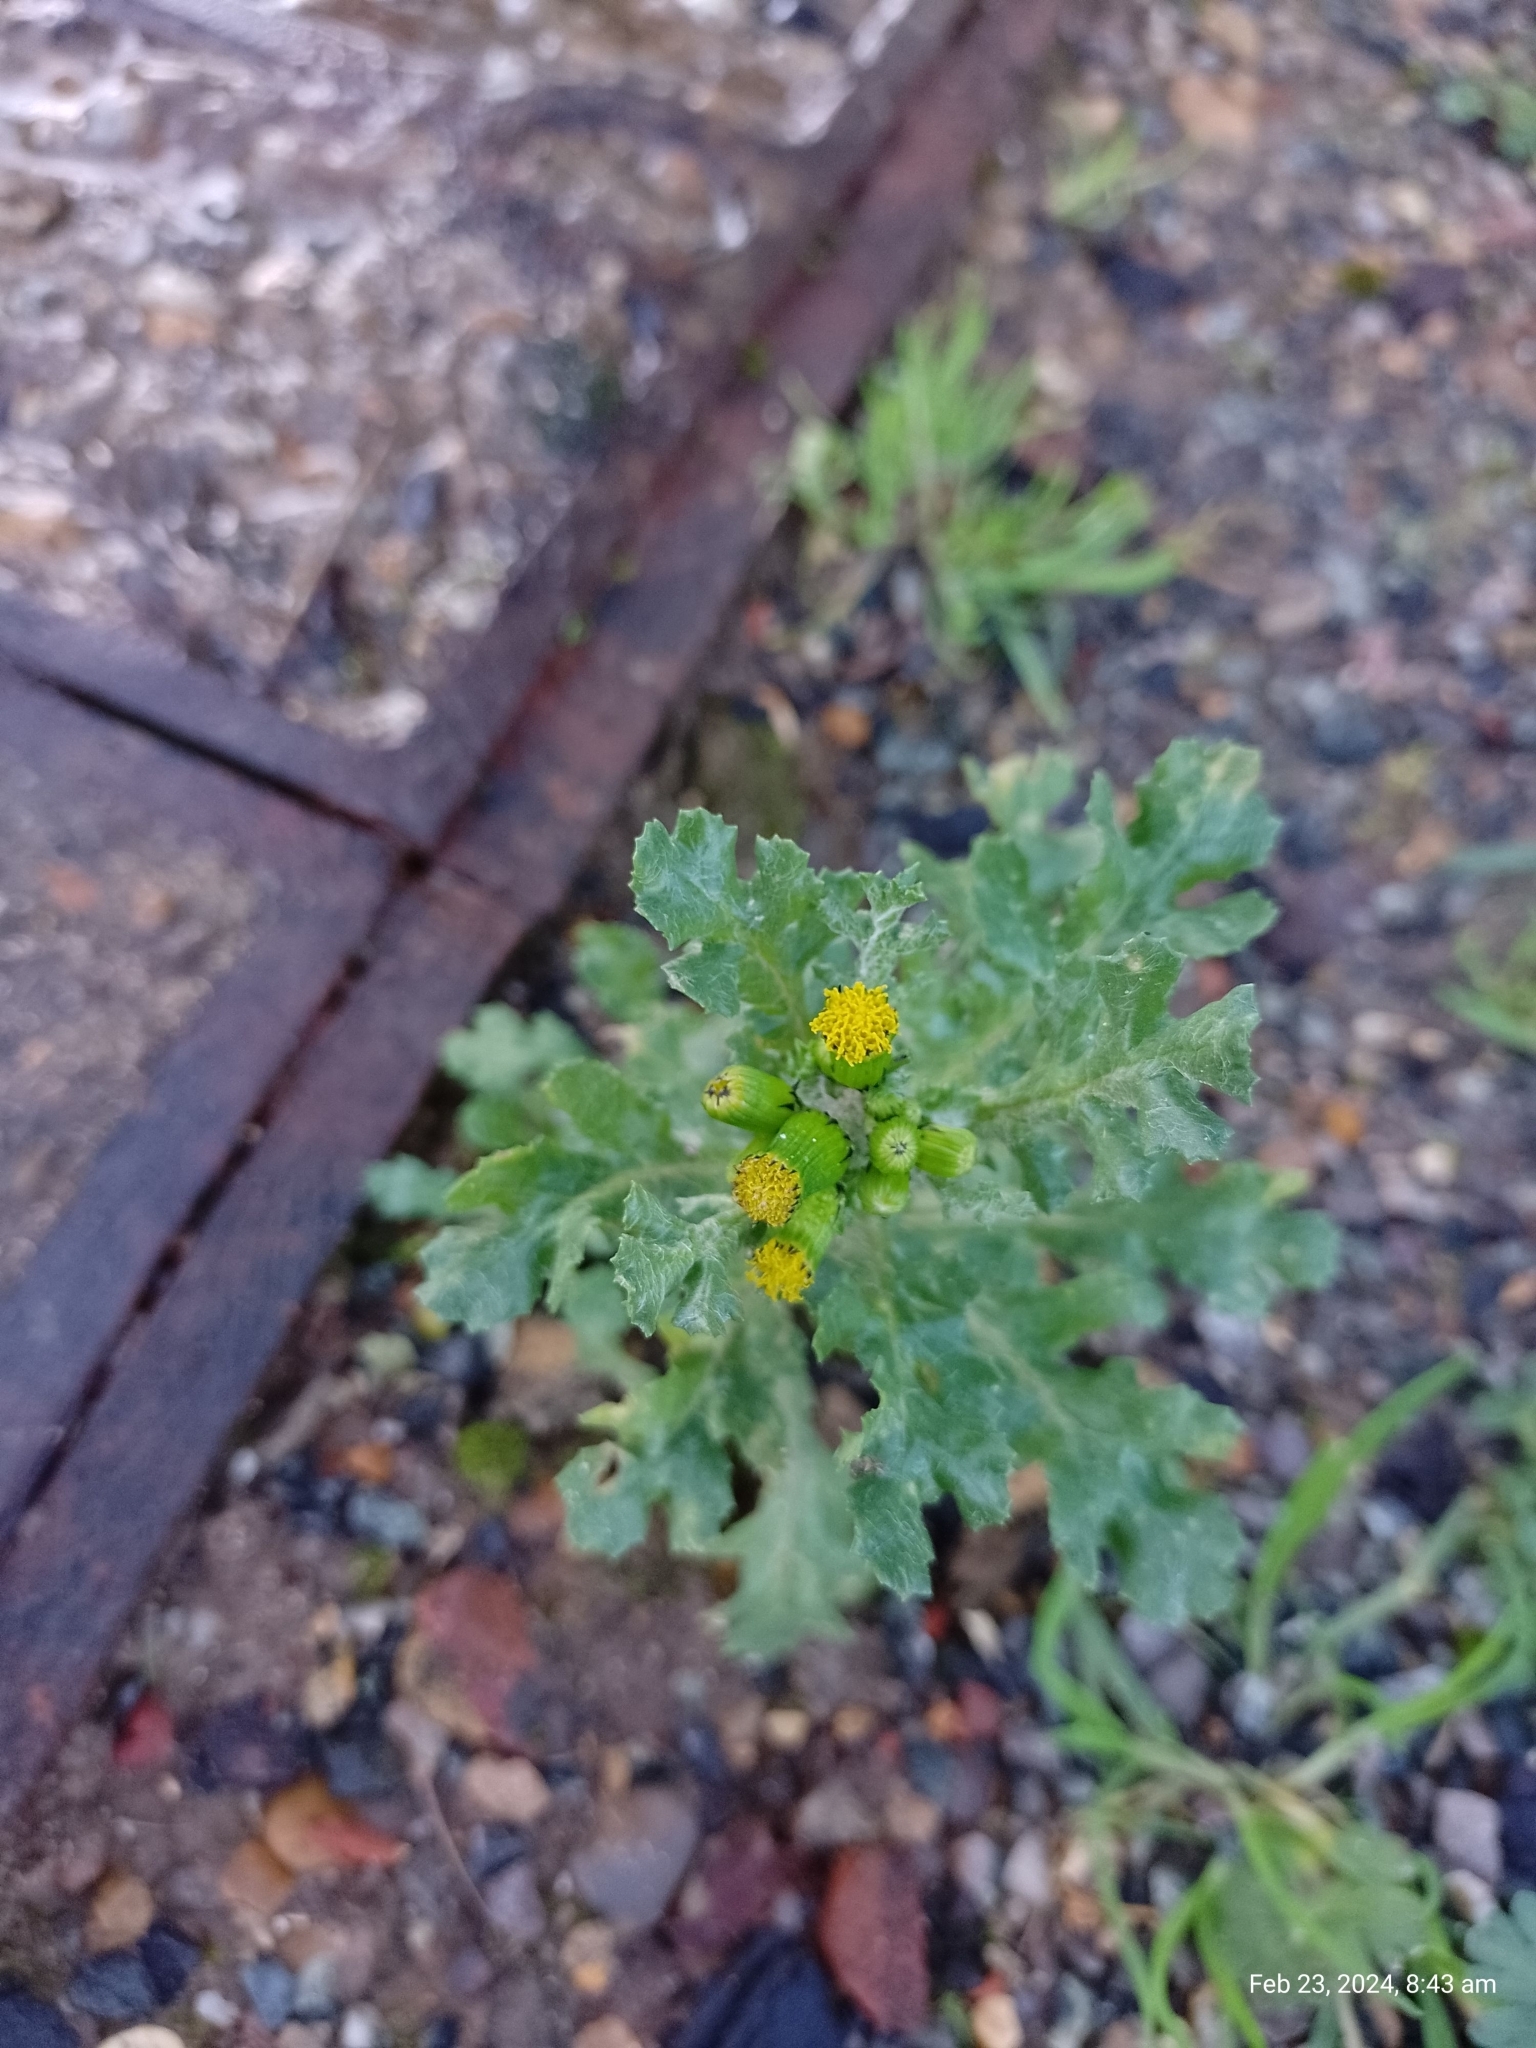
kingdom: Plantae
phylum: Tracheophyta
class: Magnoliopsida
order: Asterales
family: Asteraceae
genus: Senecio
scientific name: Senecio vulgaris
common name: Old-man-in-the-spring
